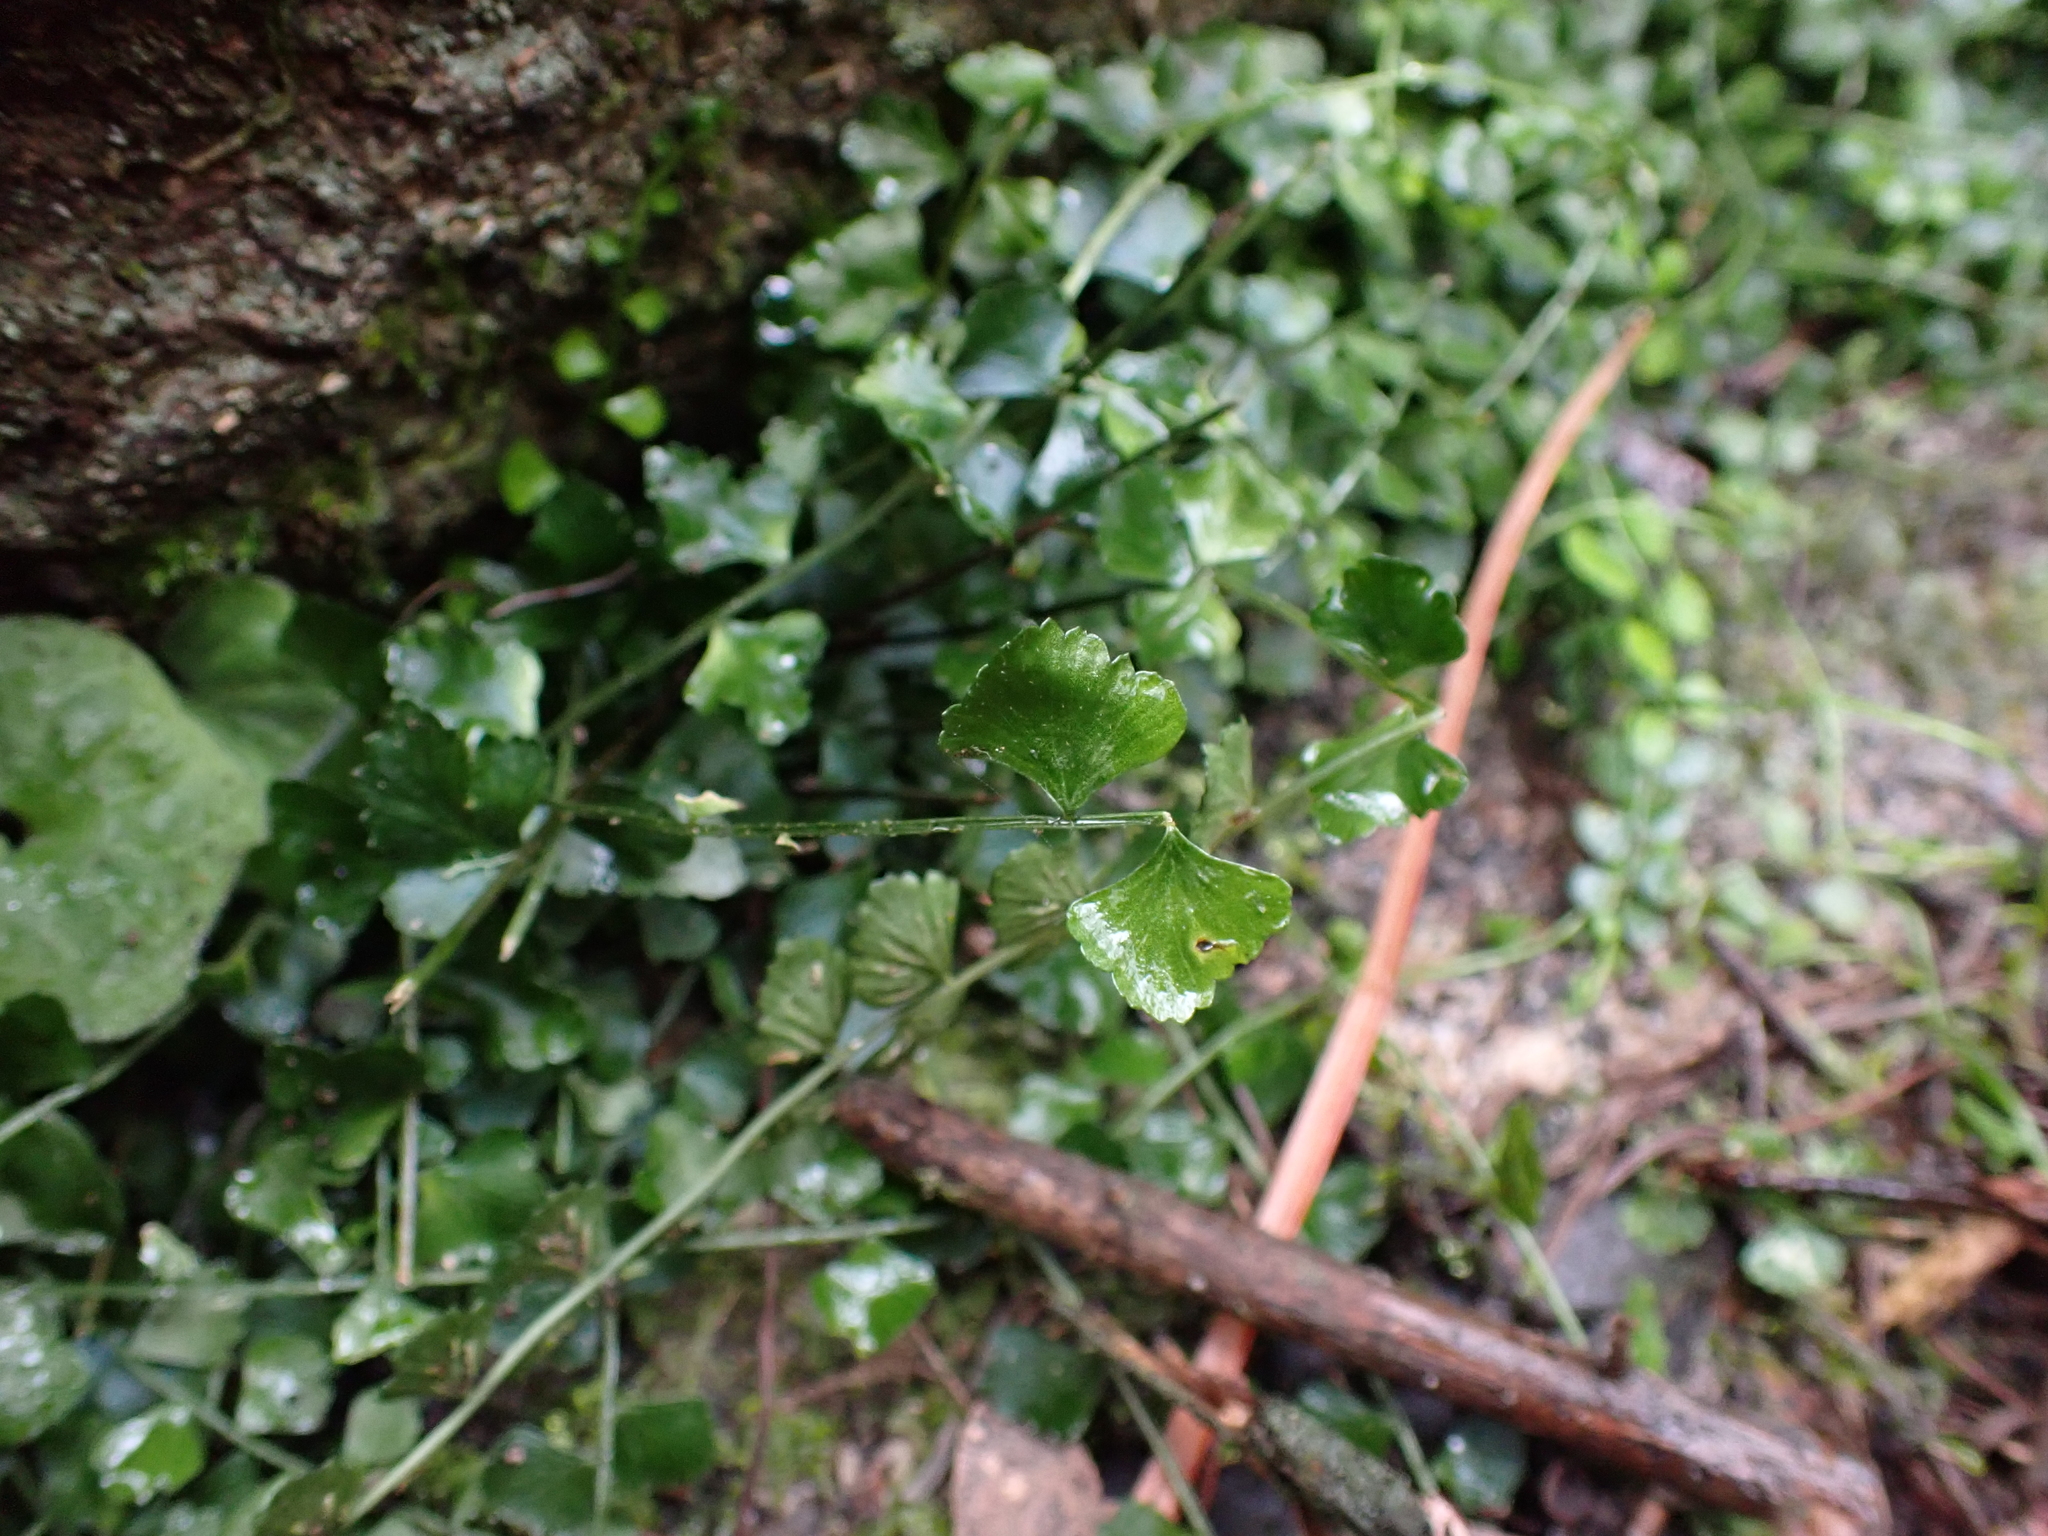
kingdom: Plantae
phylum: Tracheophyta
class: Polypodiopsida
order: Polypodiales
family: Aspleniaceae
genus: Asplenium
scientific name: Asplenium flabellifolium
